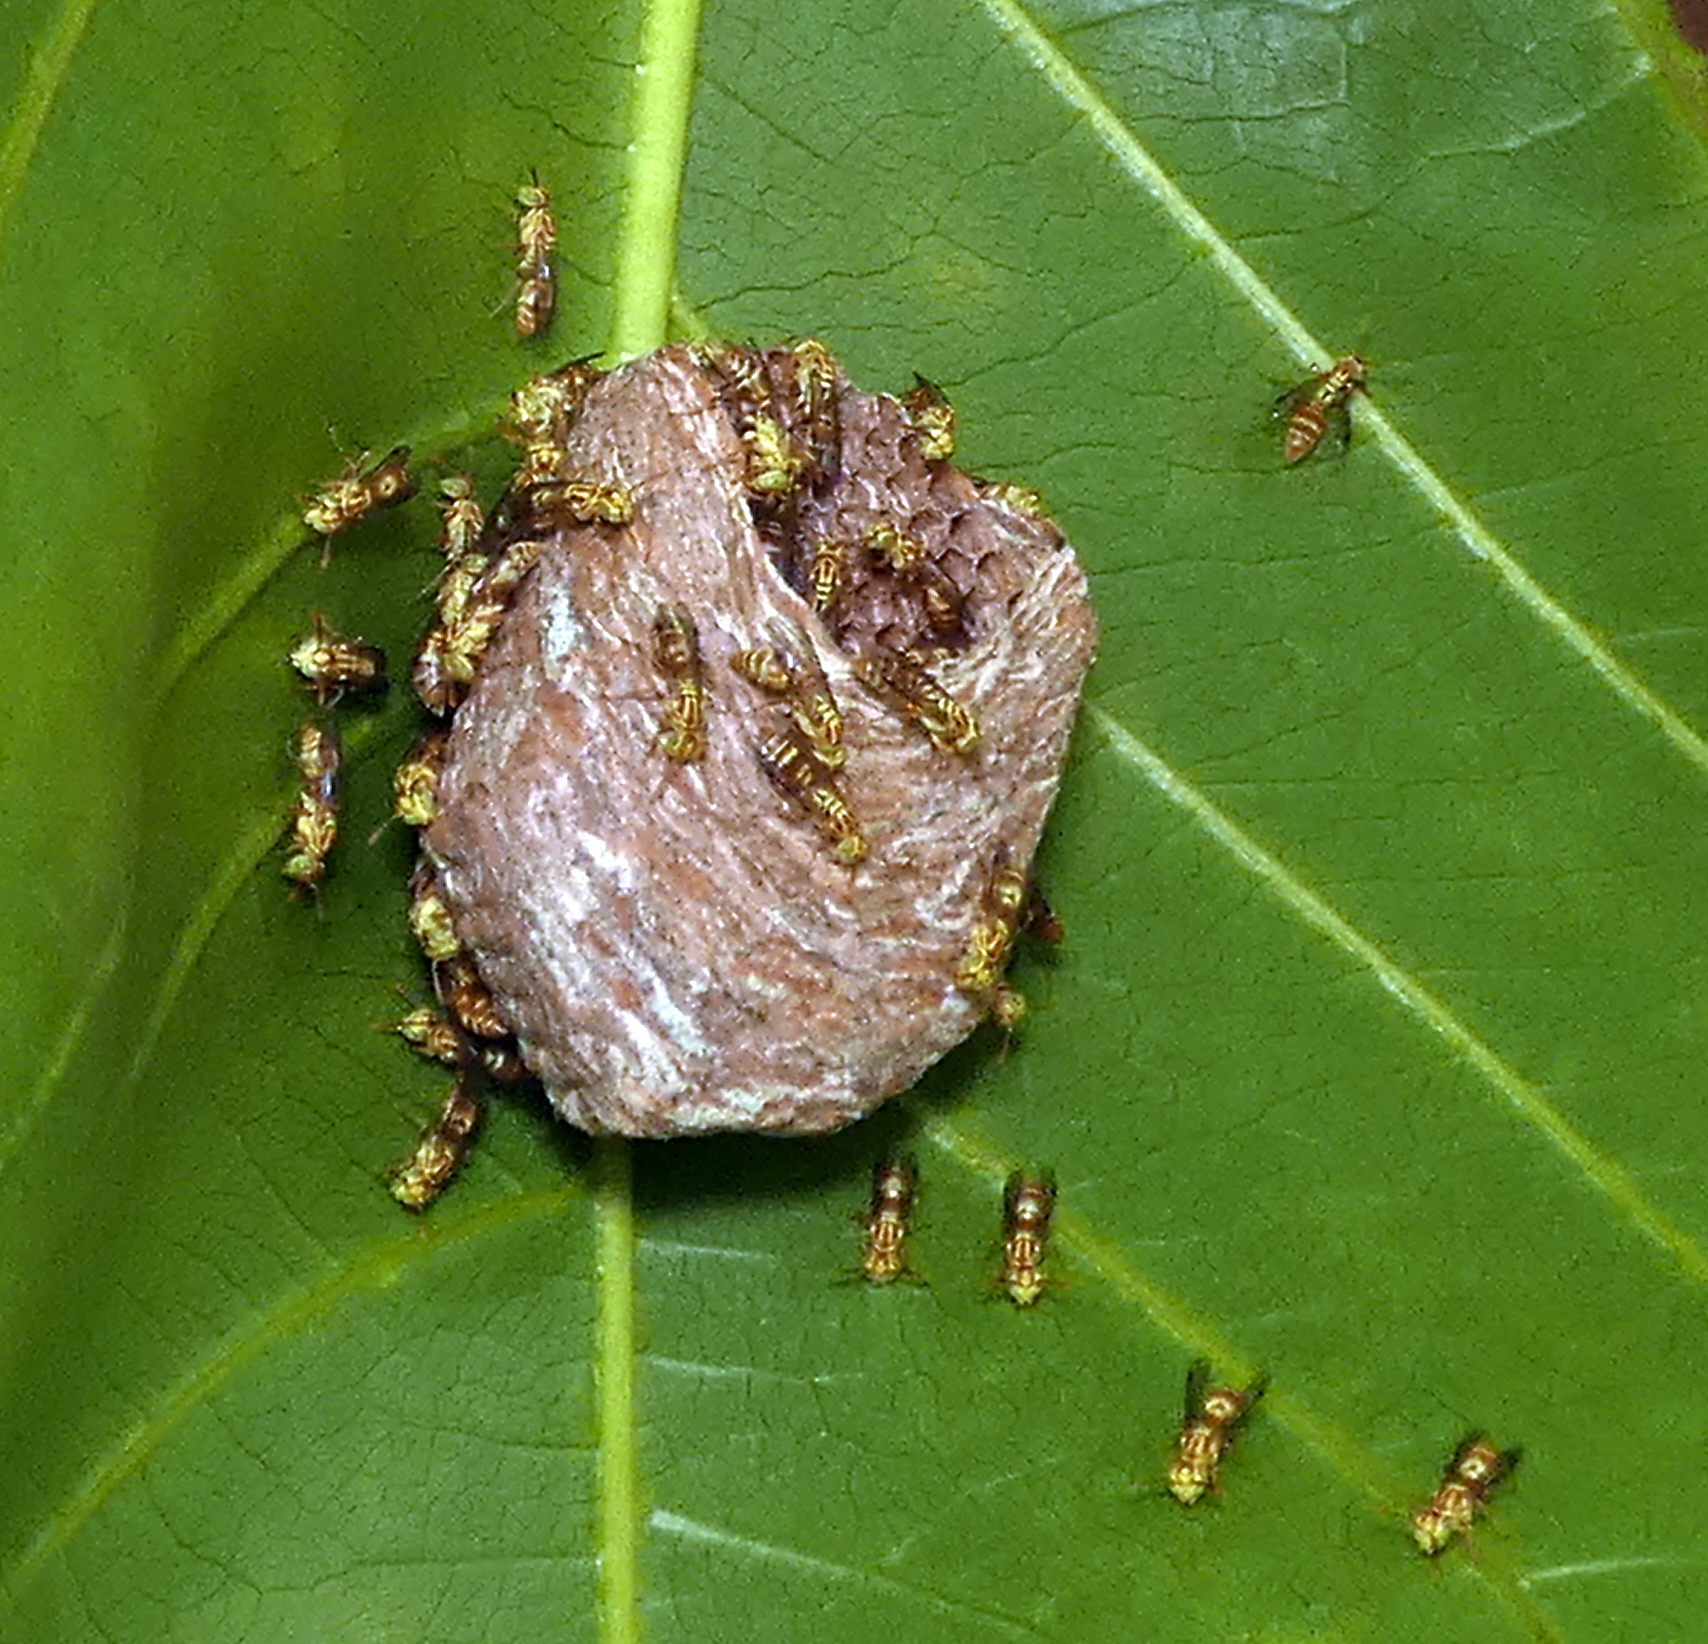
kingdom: Animalia
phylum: Arthropoda
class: Insecta
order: Hymenoptera
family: Vespidae
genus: Protopolybia
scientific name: Protopolybia potiguara
